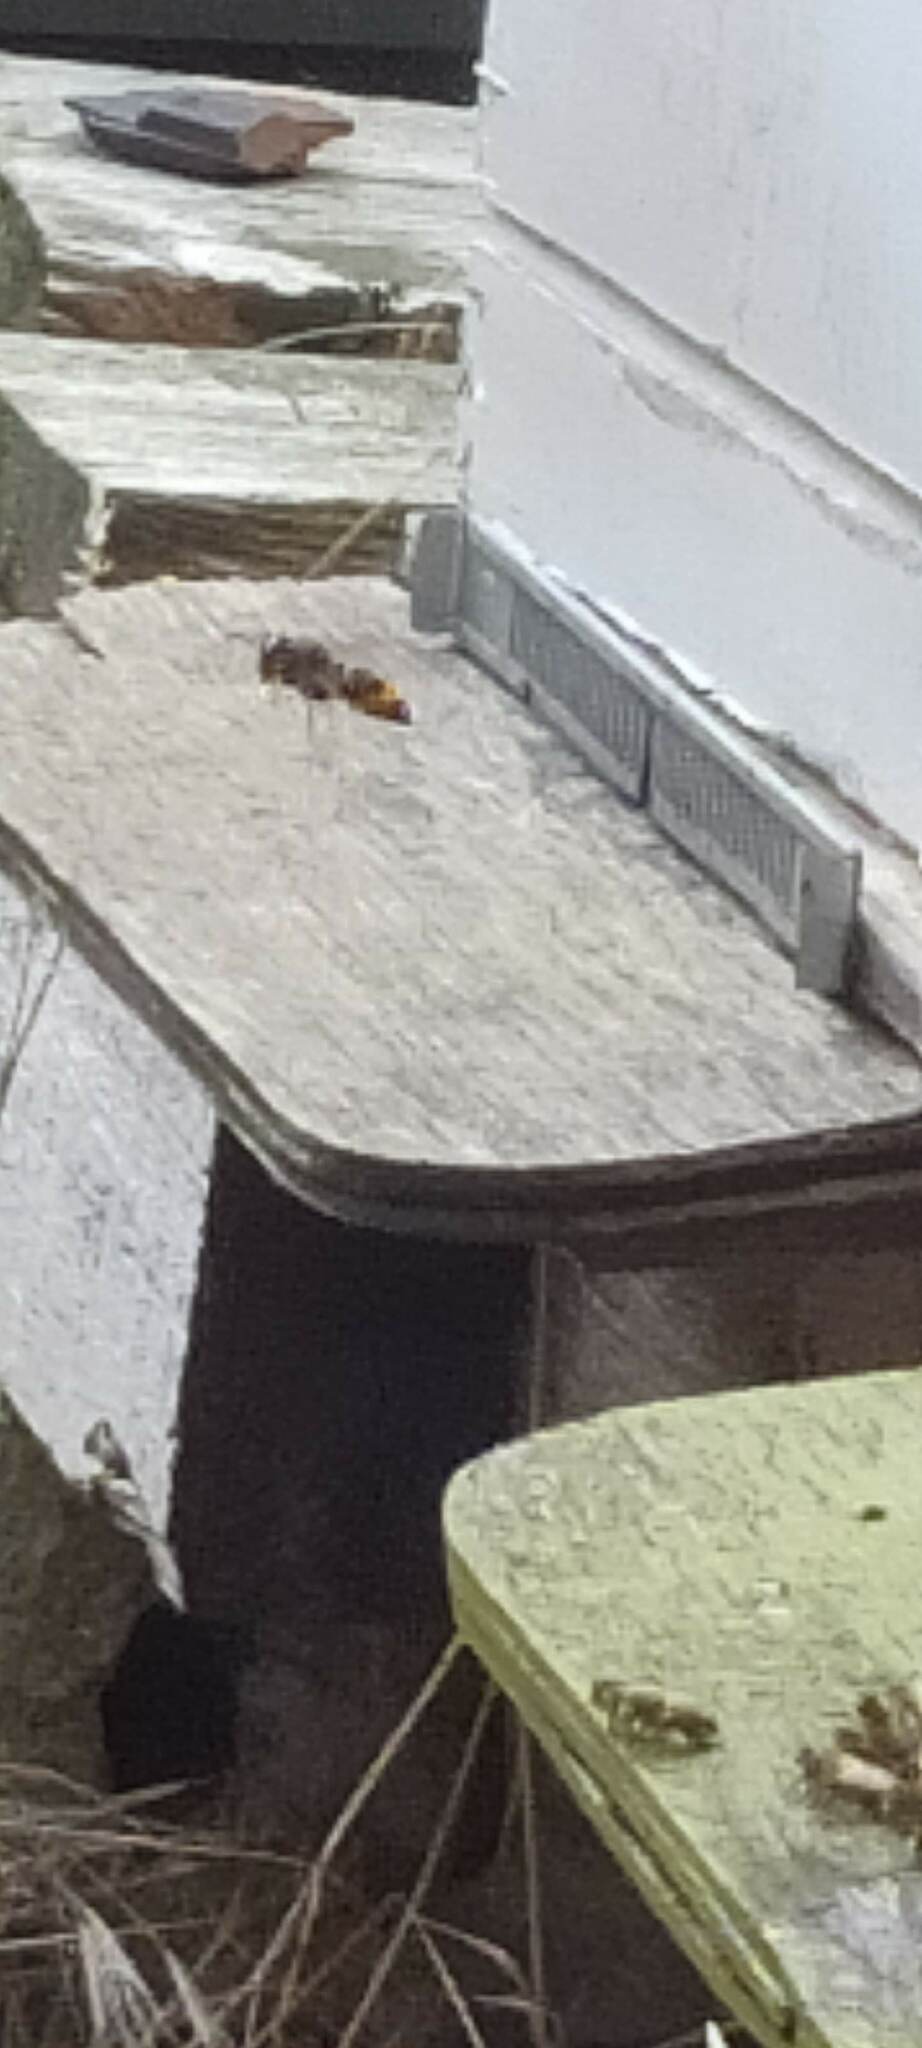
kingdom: Animalia
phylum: Arthropoda
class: Insecta
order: Hymenoptera
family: Vespidae
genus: Vespa
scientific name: Vespa velutina
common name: Asian hornet
